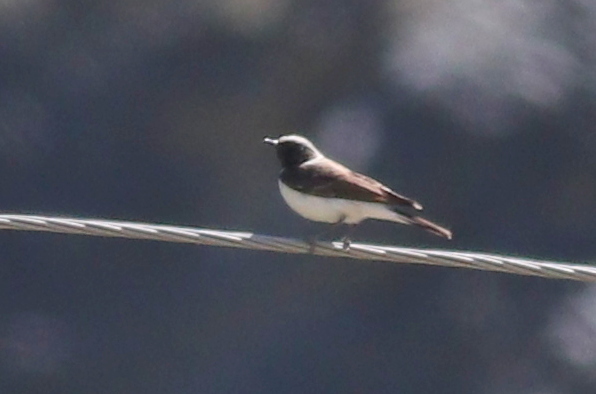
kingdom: Animalia
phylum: Chordata
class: Aves
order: Passeriformes
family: Muscicapidae
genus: Oenanthe
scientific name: Oenanthe pleschanka
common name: Pied wheatear
